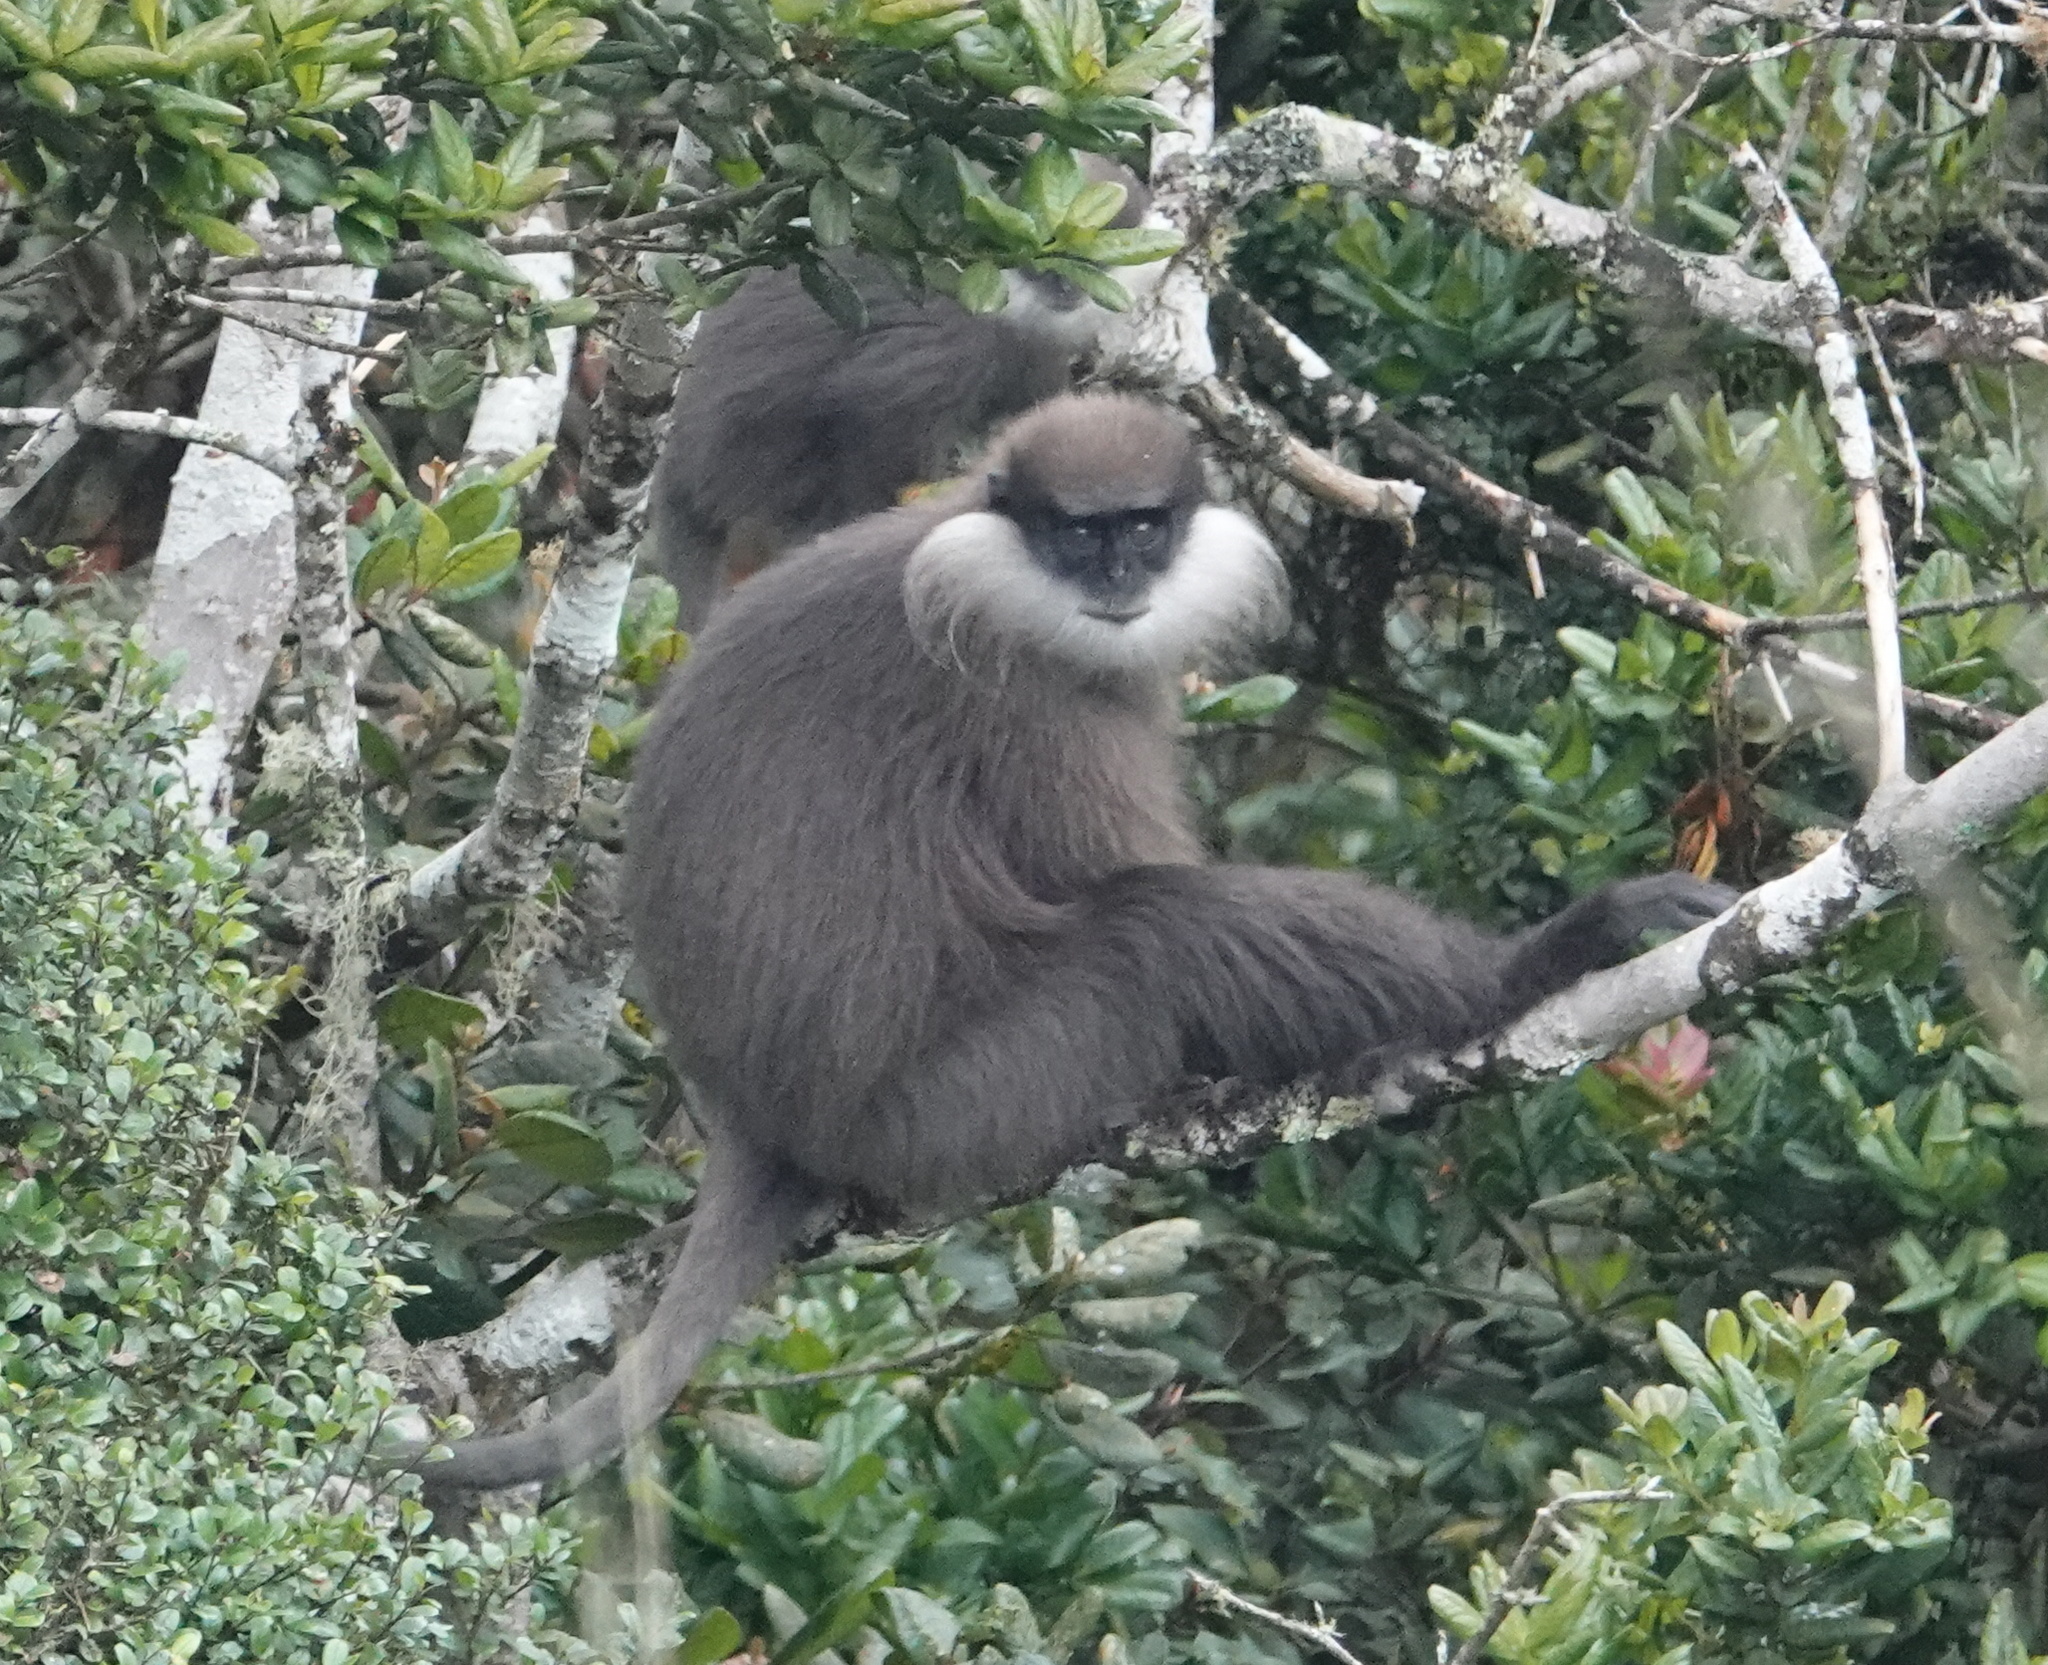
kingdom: Animalia
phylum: Chordata
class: Mammalia
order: Primates
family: Cercopithecidae
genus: Semnopithecus
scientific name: Semnopithecus vetulus
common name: Purple-faced langur
